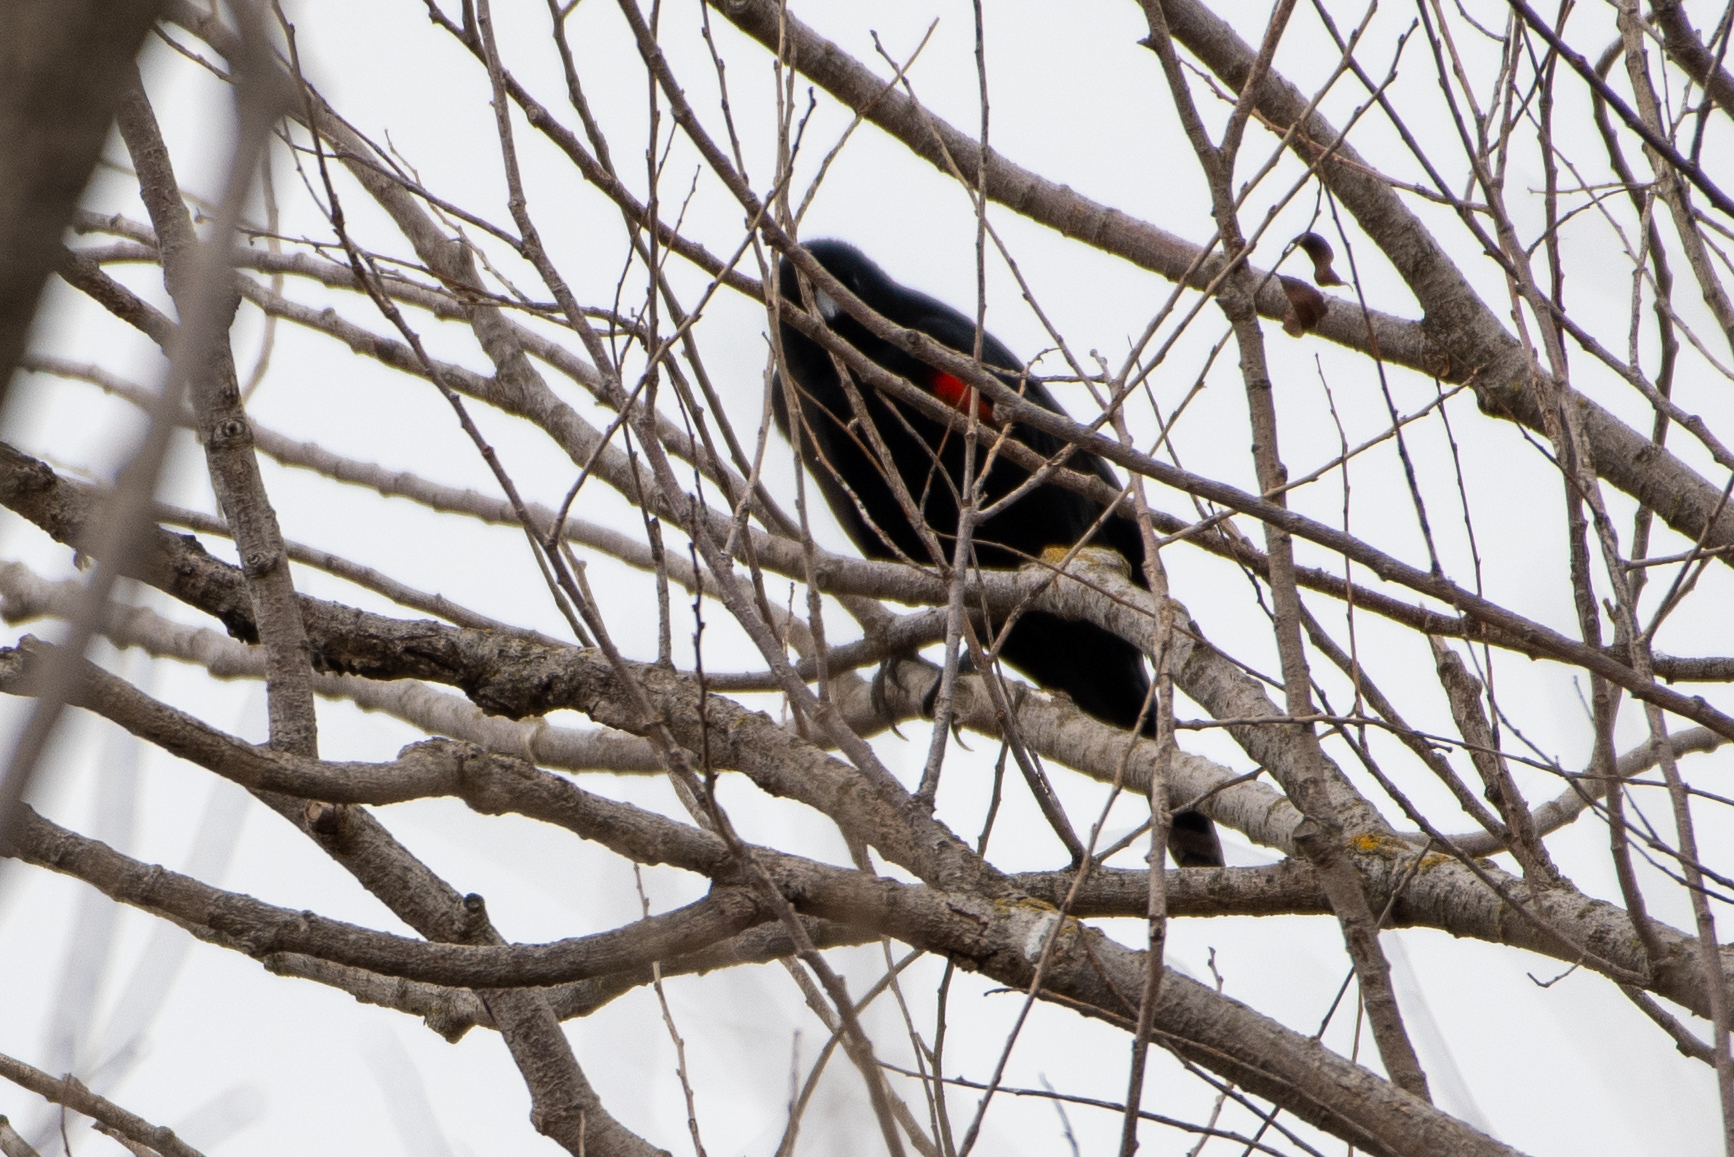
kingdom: Animalia
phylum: Chordata
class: Aves
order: Passeriformes
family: Icteridae
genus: Agelaius
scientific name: Agelaius phoeniceus
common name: Red-winged blackbird
